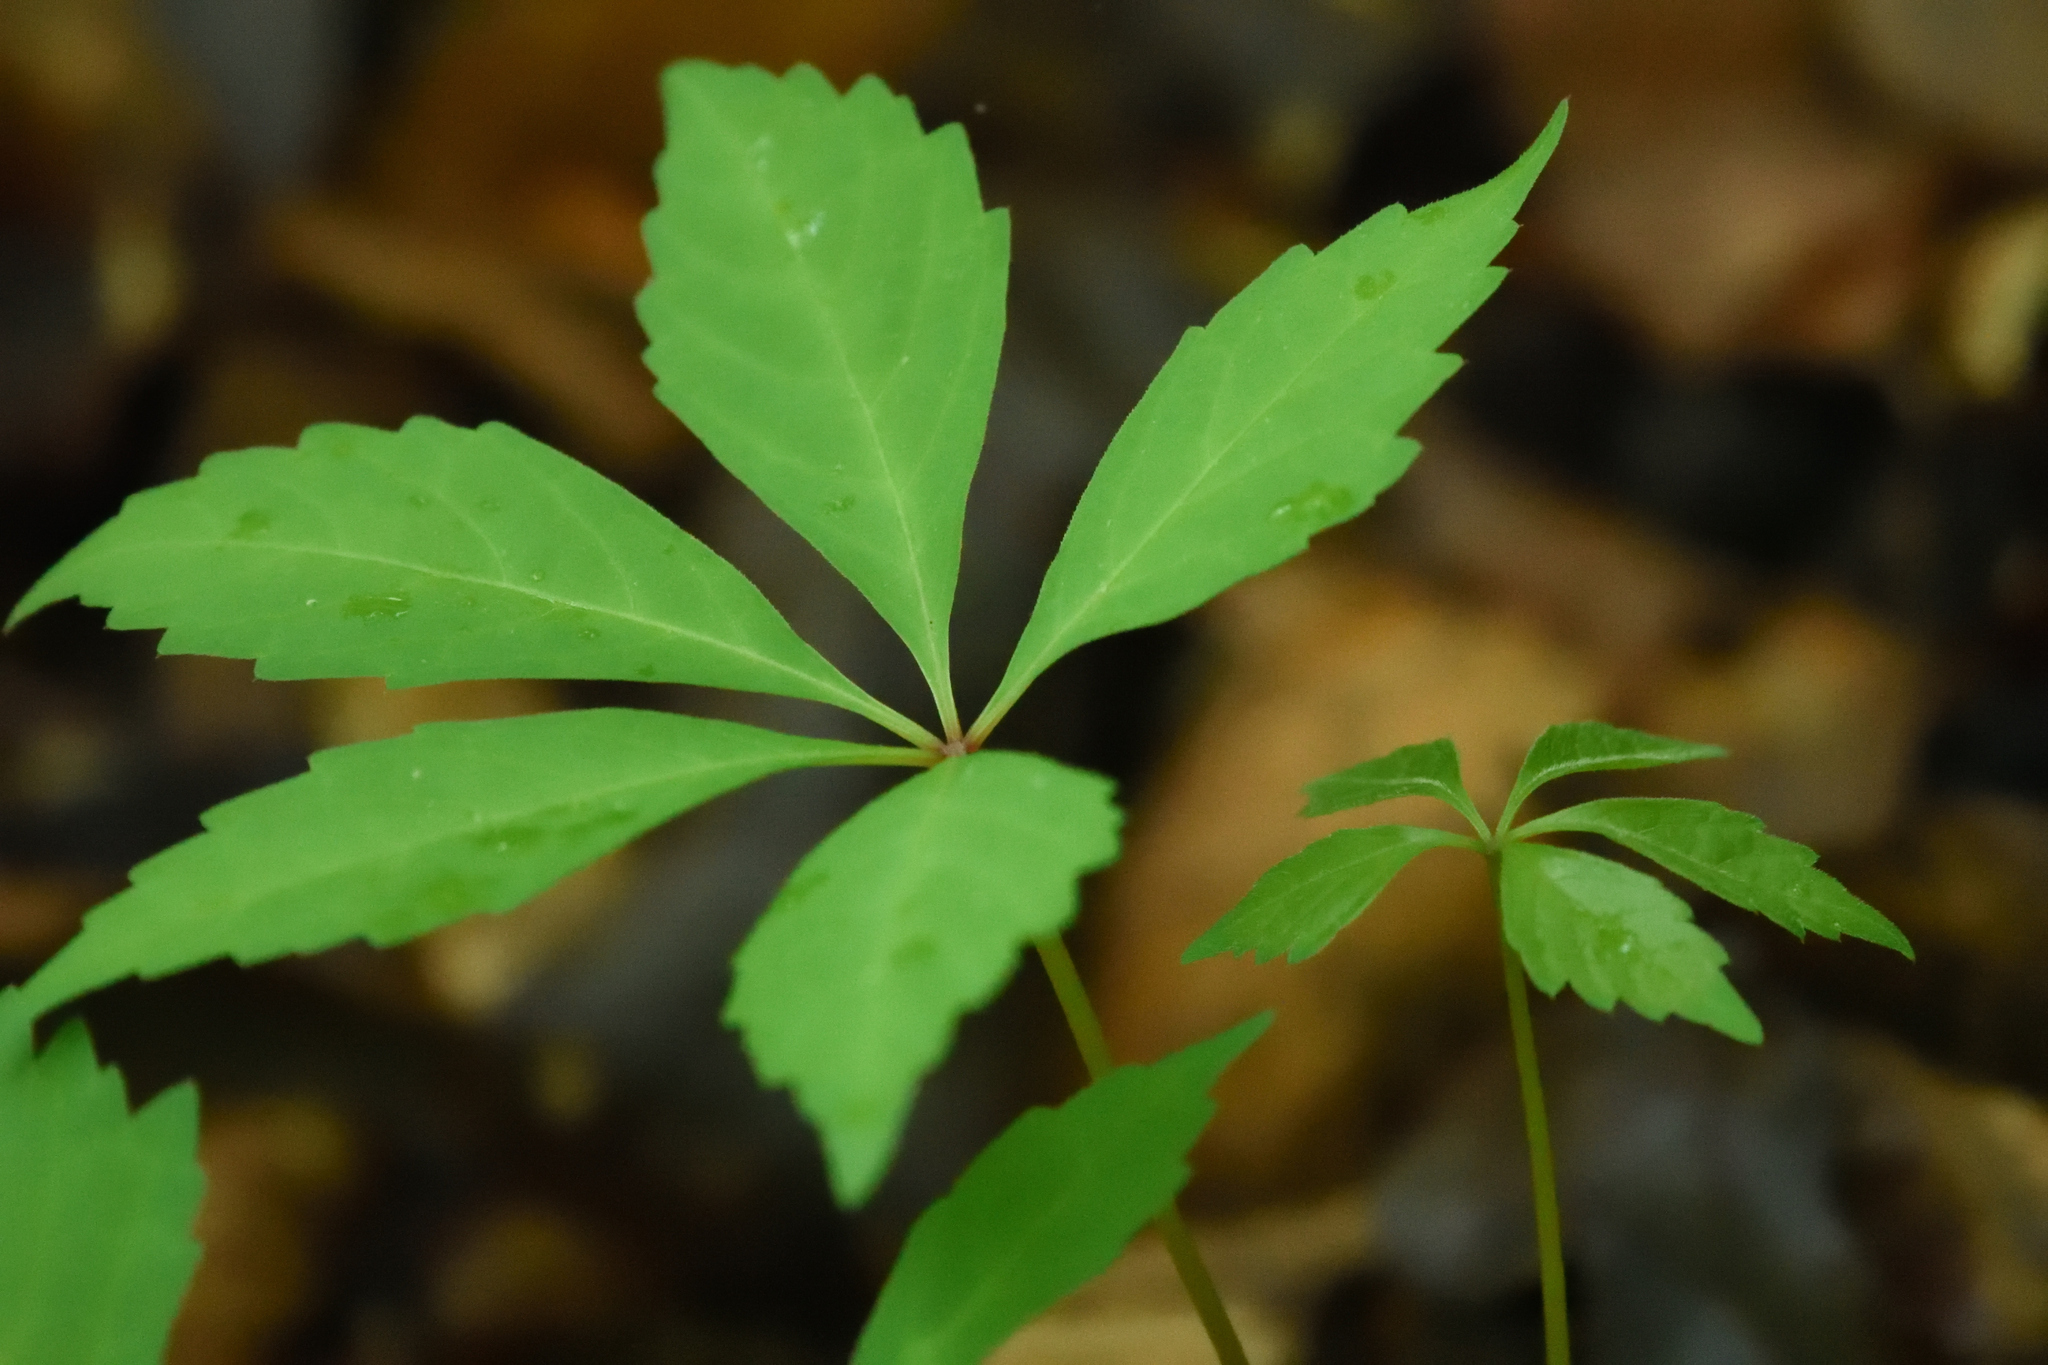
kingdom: Plantae
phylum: Tracheophyta
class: Magnoliopsida
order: Vitales
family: Vitaceae
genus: Parthenocissus
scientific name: Parthenocissus quinquefolia
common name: Virginia-creeper
